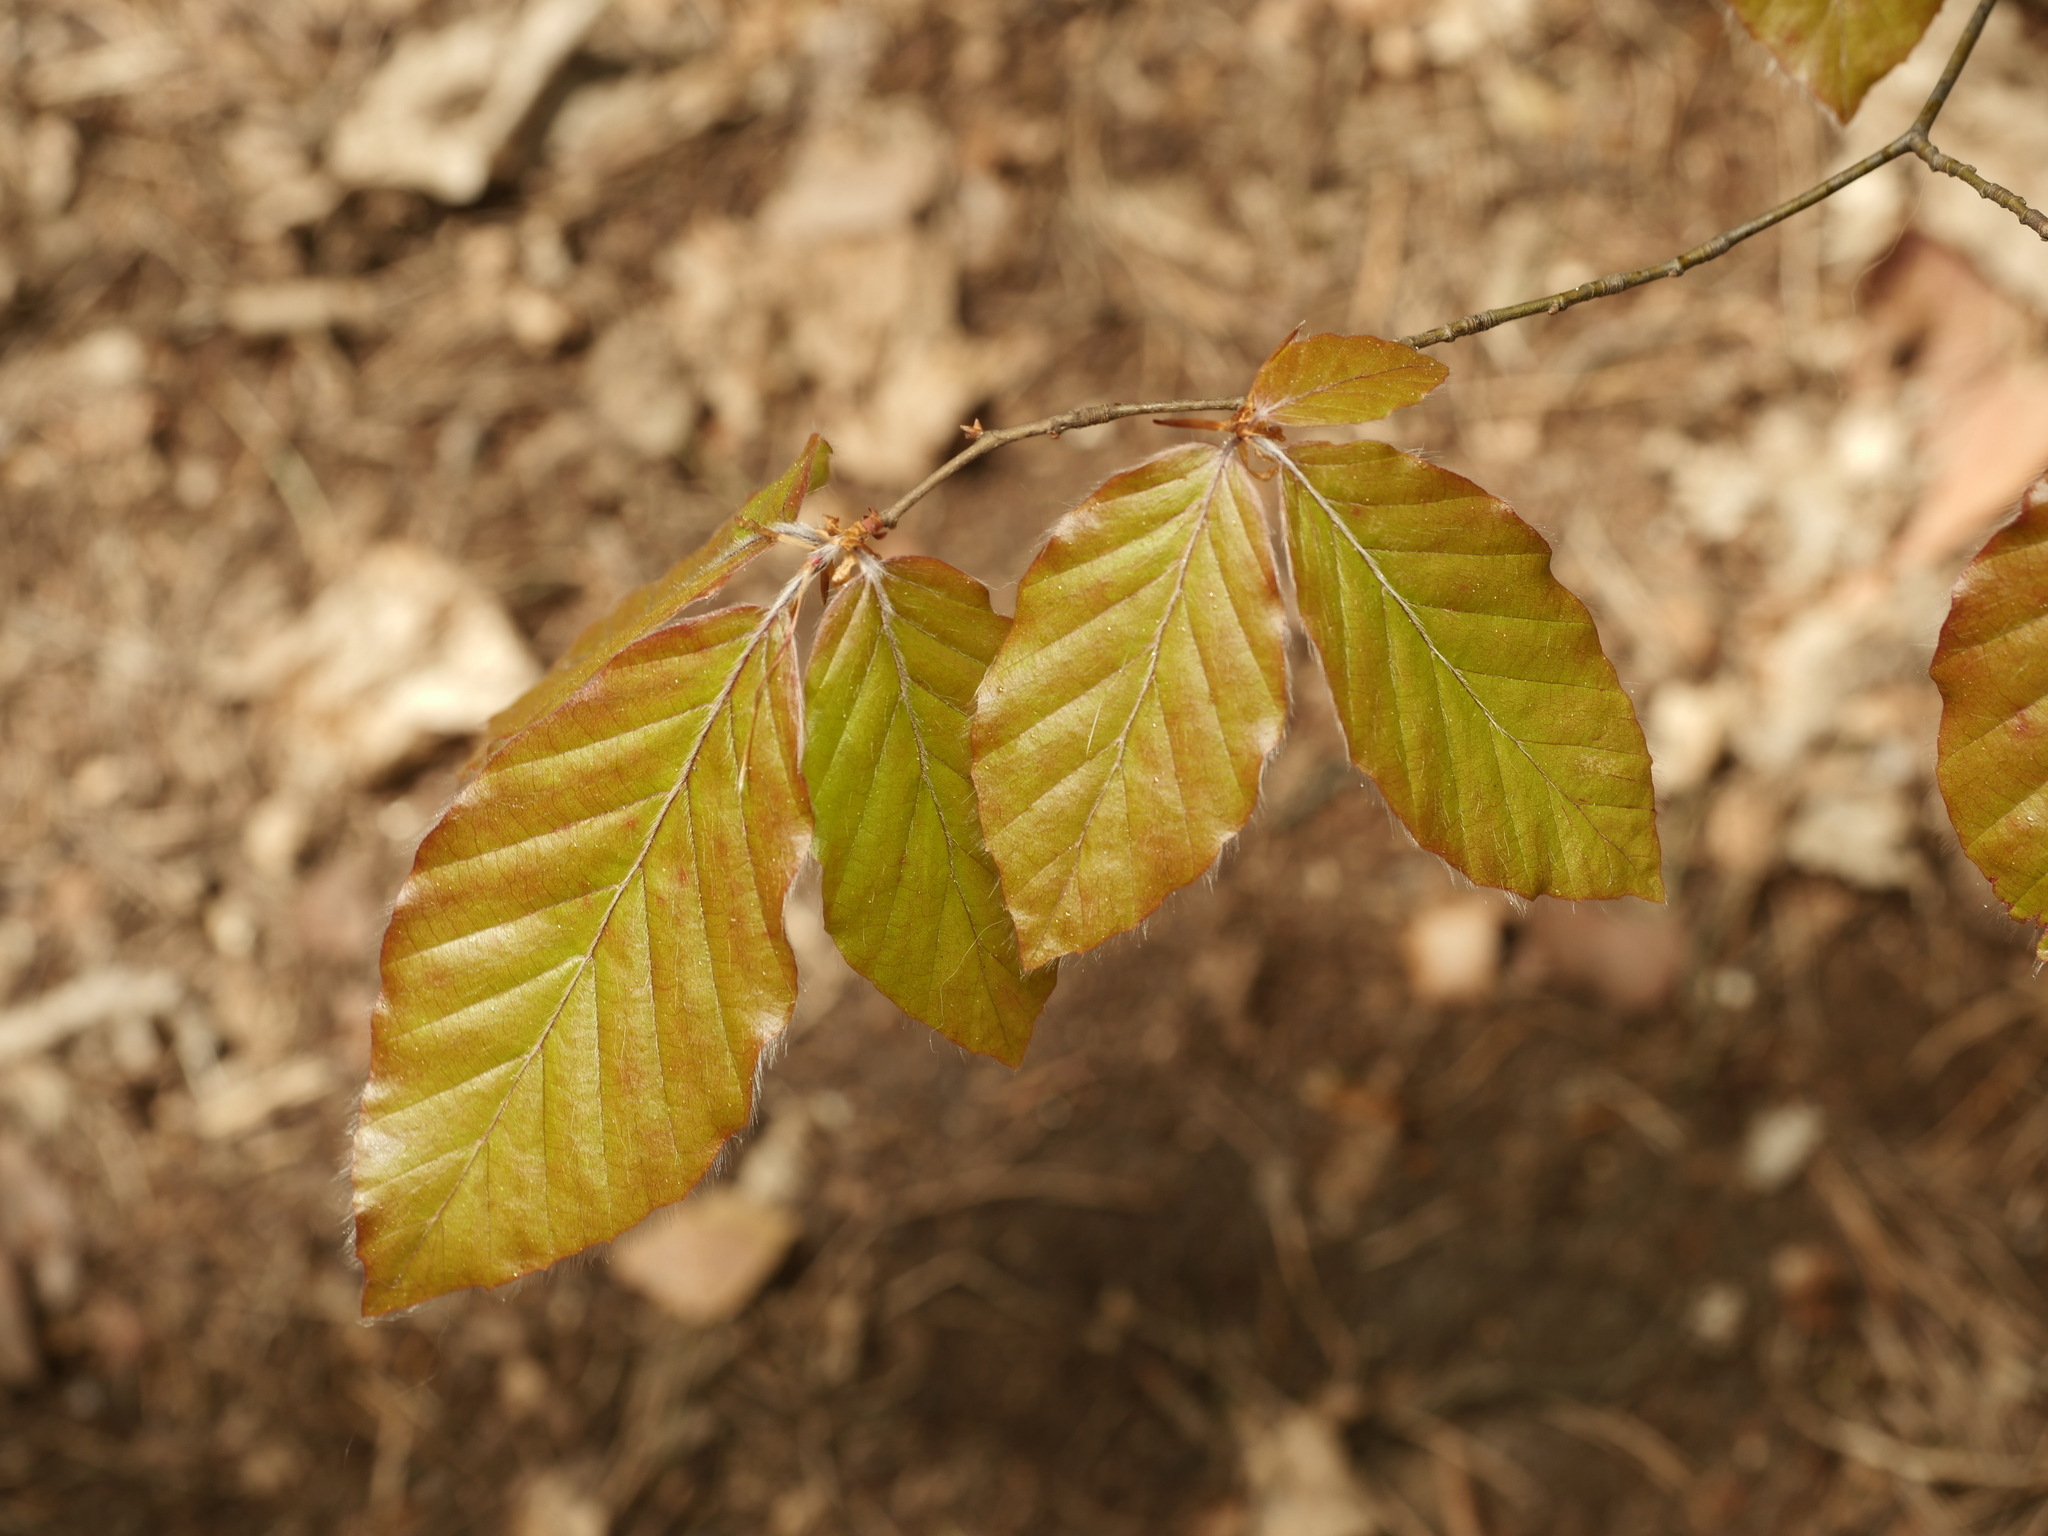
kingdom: Plantae
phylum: Tracheophyta
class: Magnoliopsida
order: Fagales
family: Fagaceae
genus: Fagus
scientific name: Fagus sylvatica
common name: Beech
